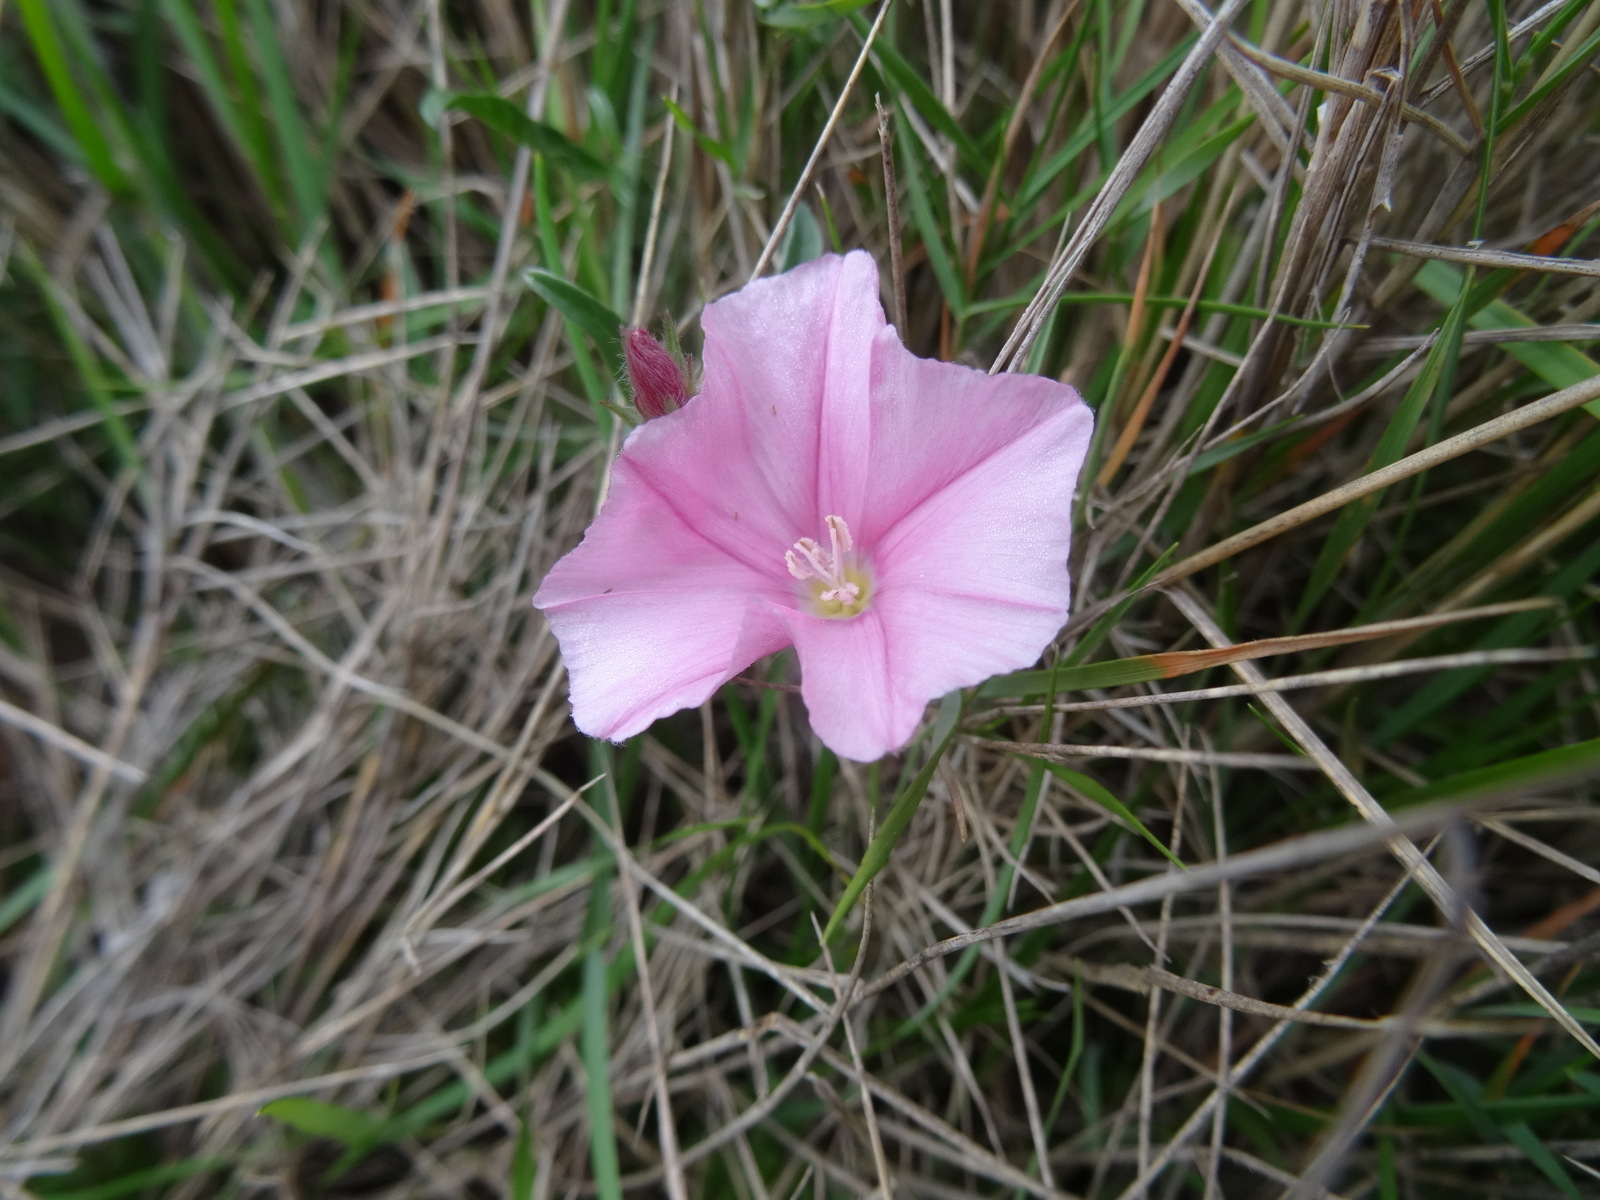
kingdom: Plantae
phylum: Tracheophyta
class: Magnoliopsida
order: Solanales
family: Convolvulaceae
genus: Convolvulus
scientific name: Convolvulus cantabrica
